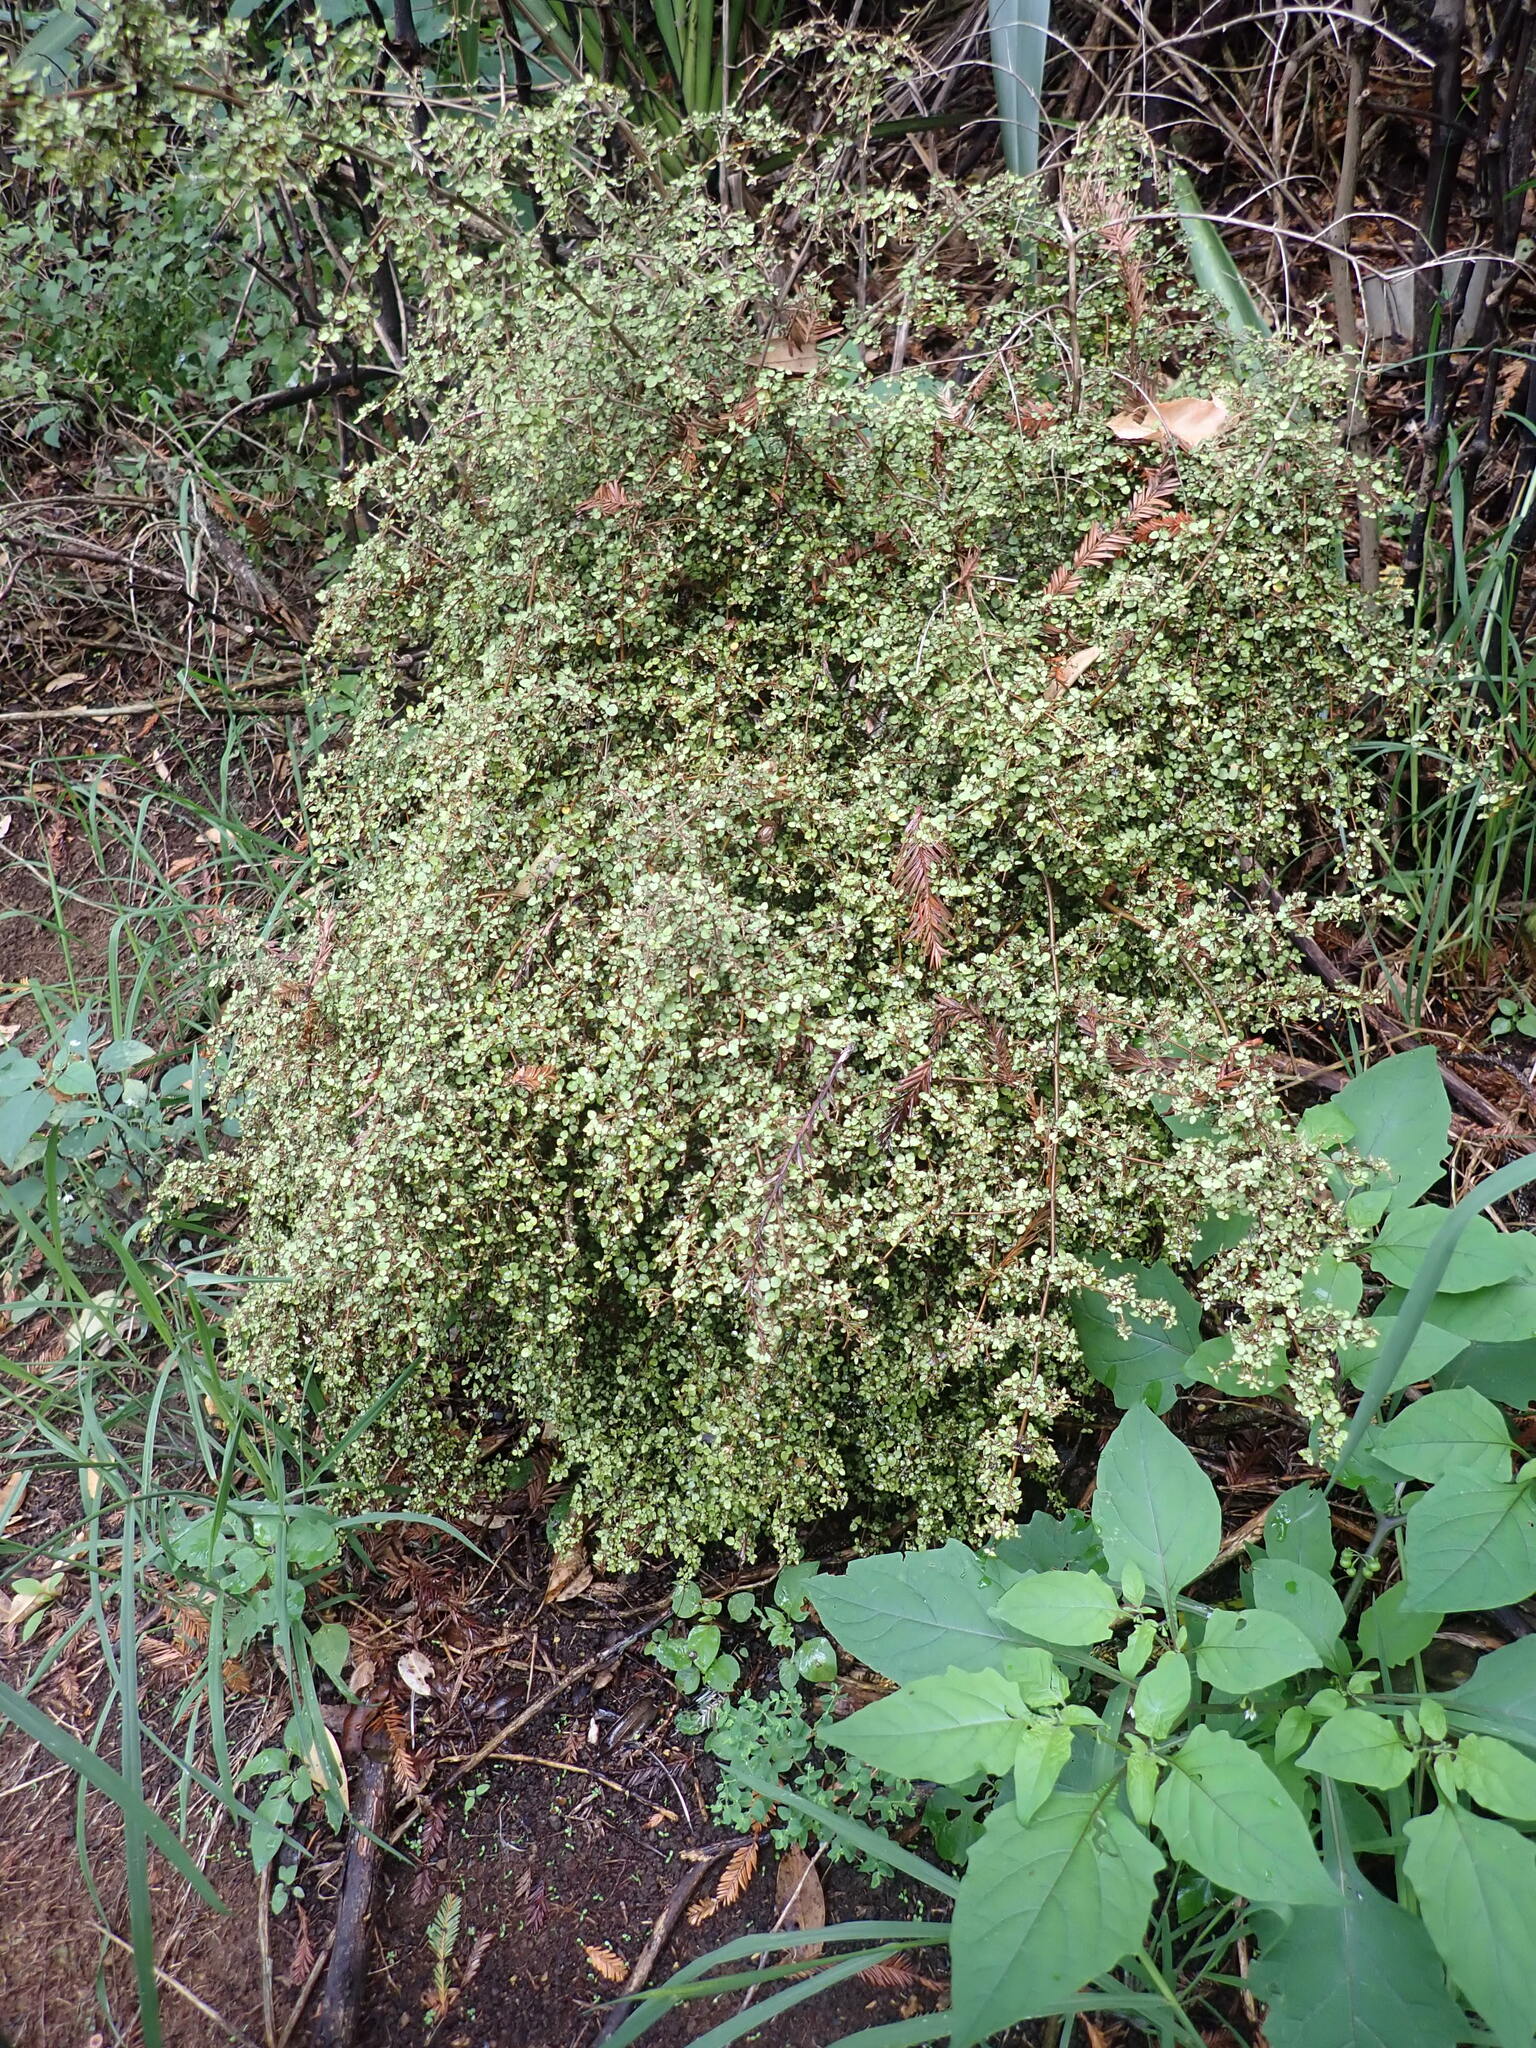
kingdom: Plantae
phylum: Tracheophyta
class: Magnoliopsida
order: Gentianales
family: Rubiaceae
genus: Coprosma
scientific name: Coprosma rhamnoides
